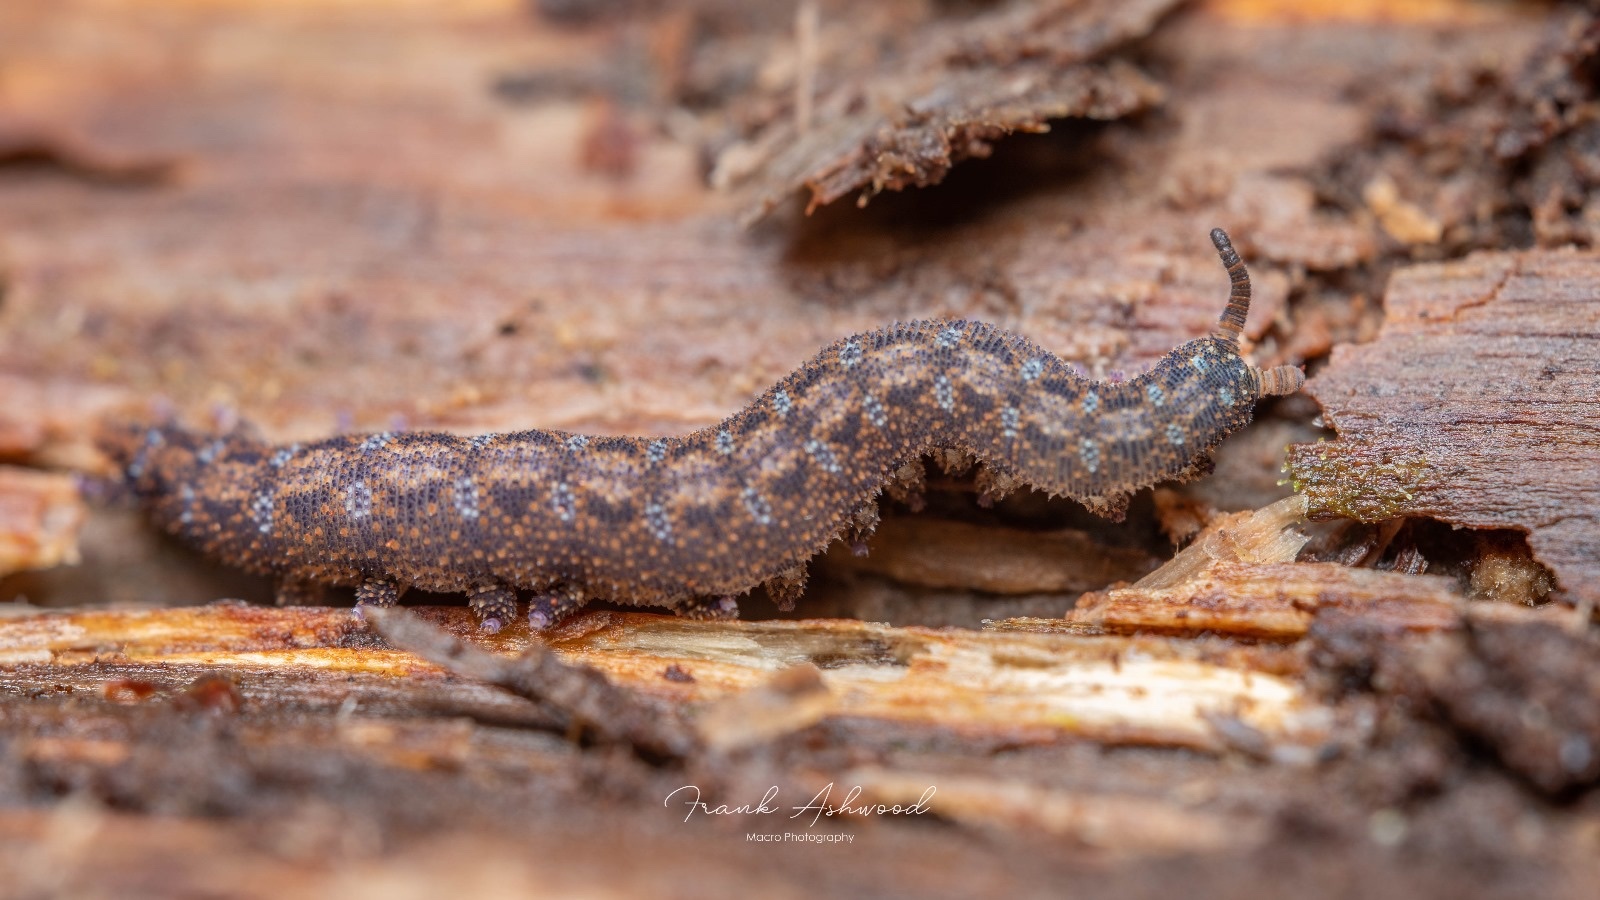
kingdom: Animalia
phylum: Onychophora
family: Peripatopsidae
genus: Ooperipatellus
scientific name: Ooperipatellus viridimaculatus
